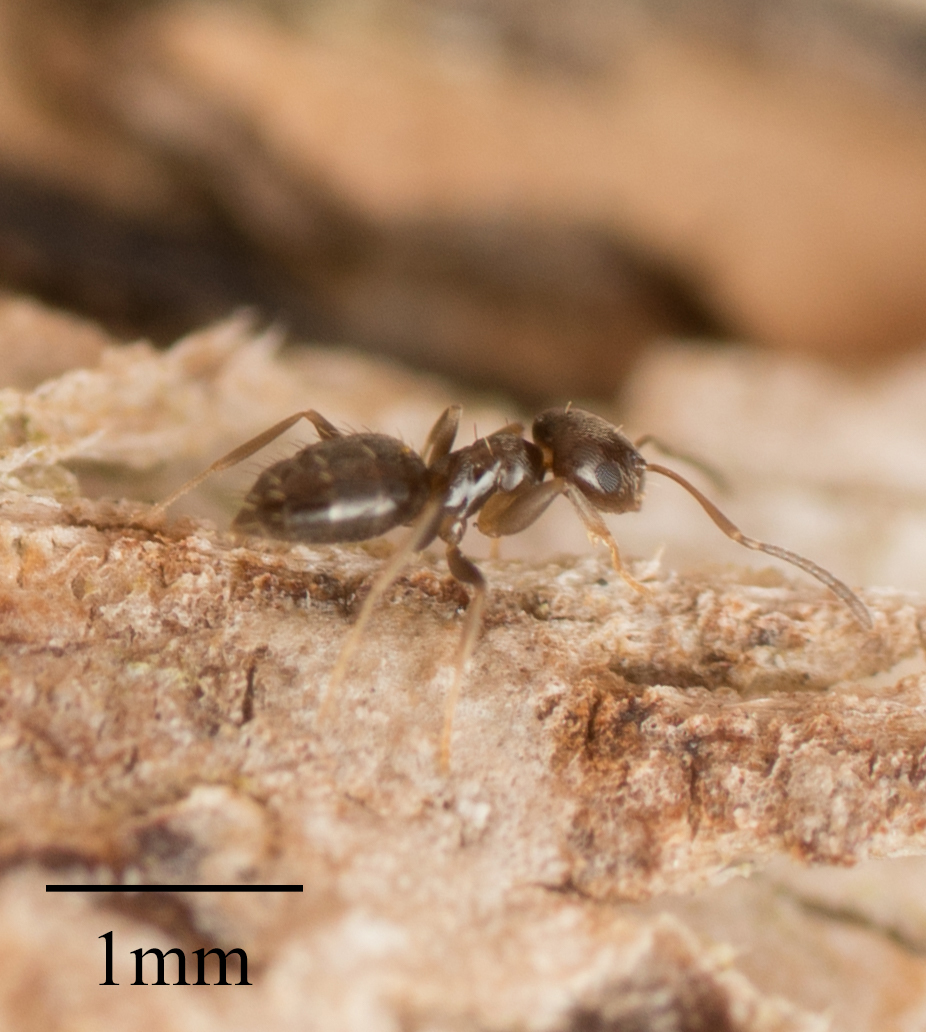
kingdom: Animalia
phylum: Arthropoda
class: Insecta
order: Hymenoptera
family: Formicidae
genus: Brachymyrmex
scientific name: Brachymyrmex patagonicus
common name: Dark rover ant
